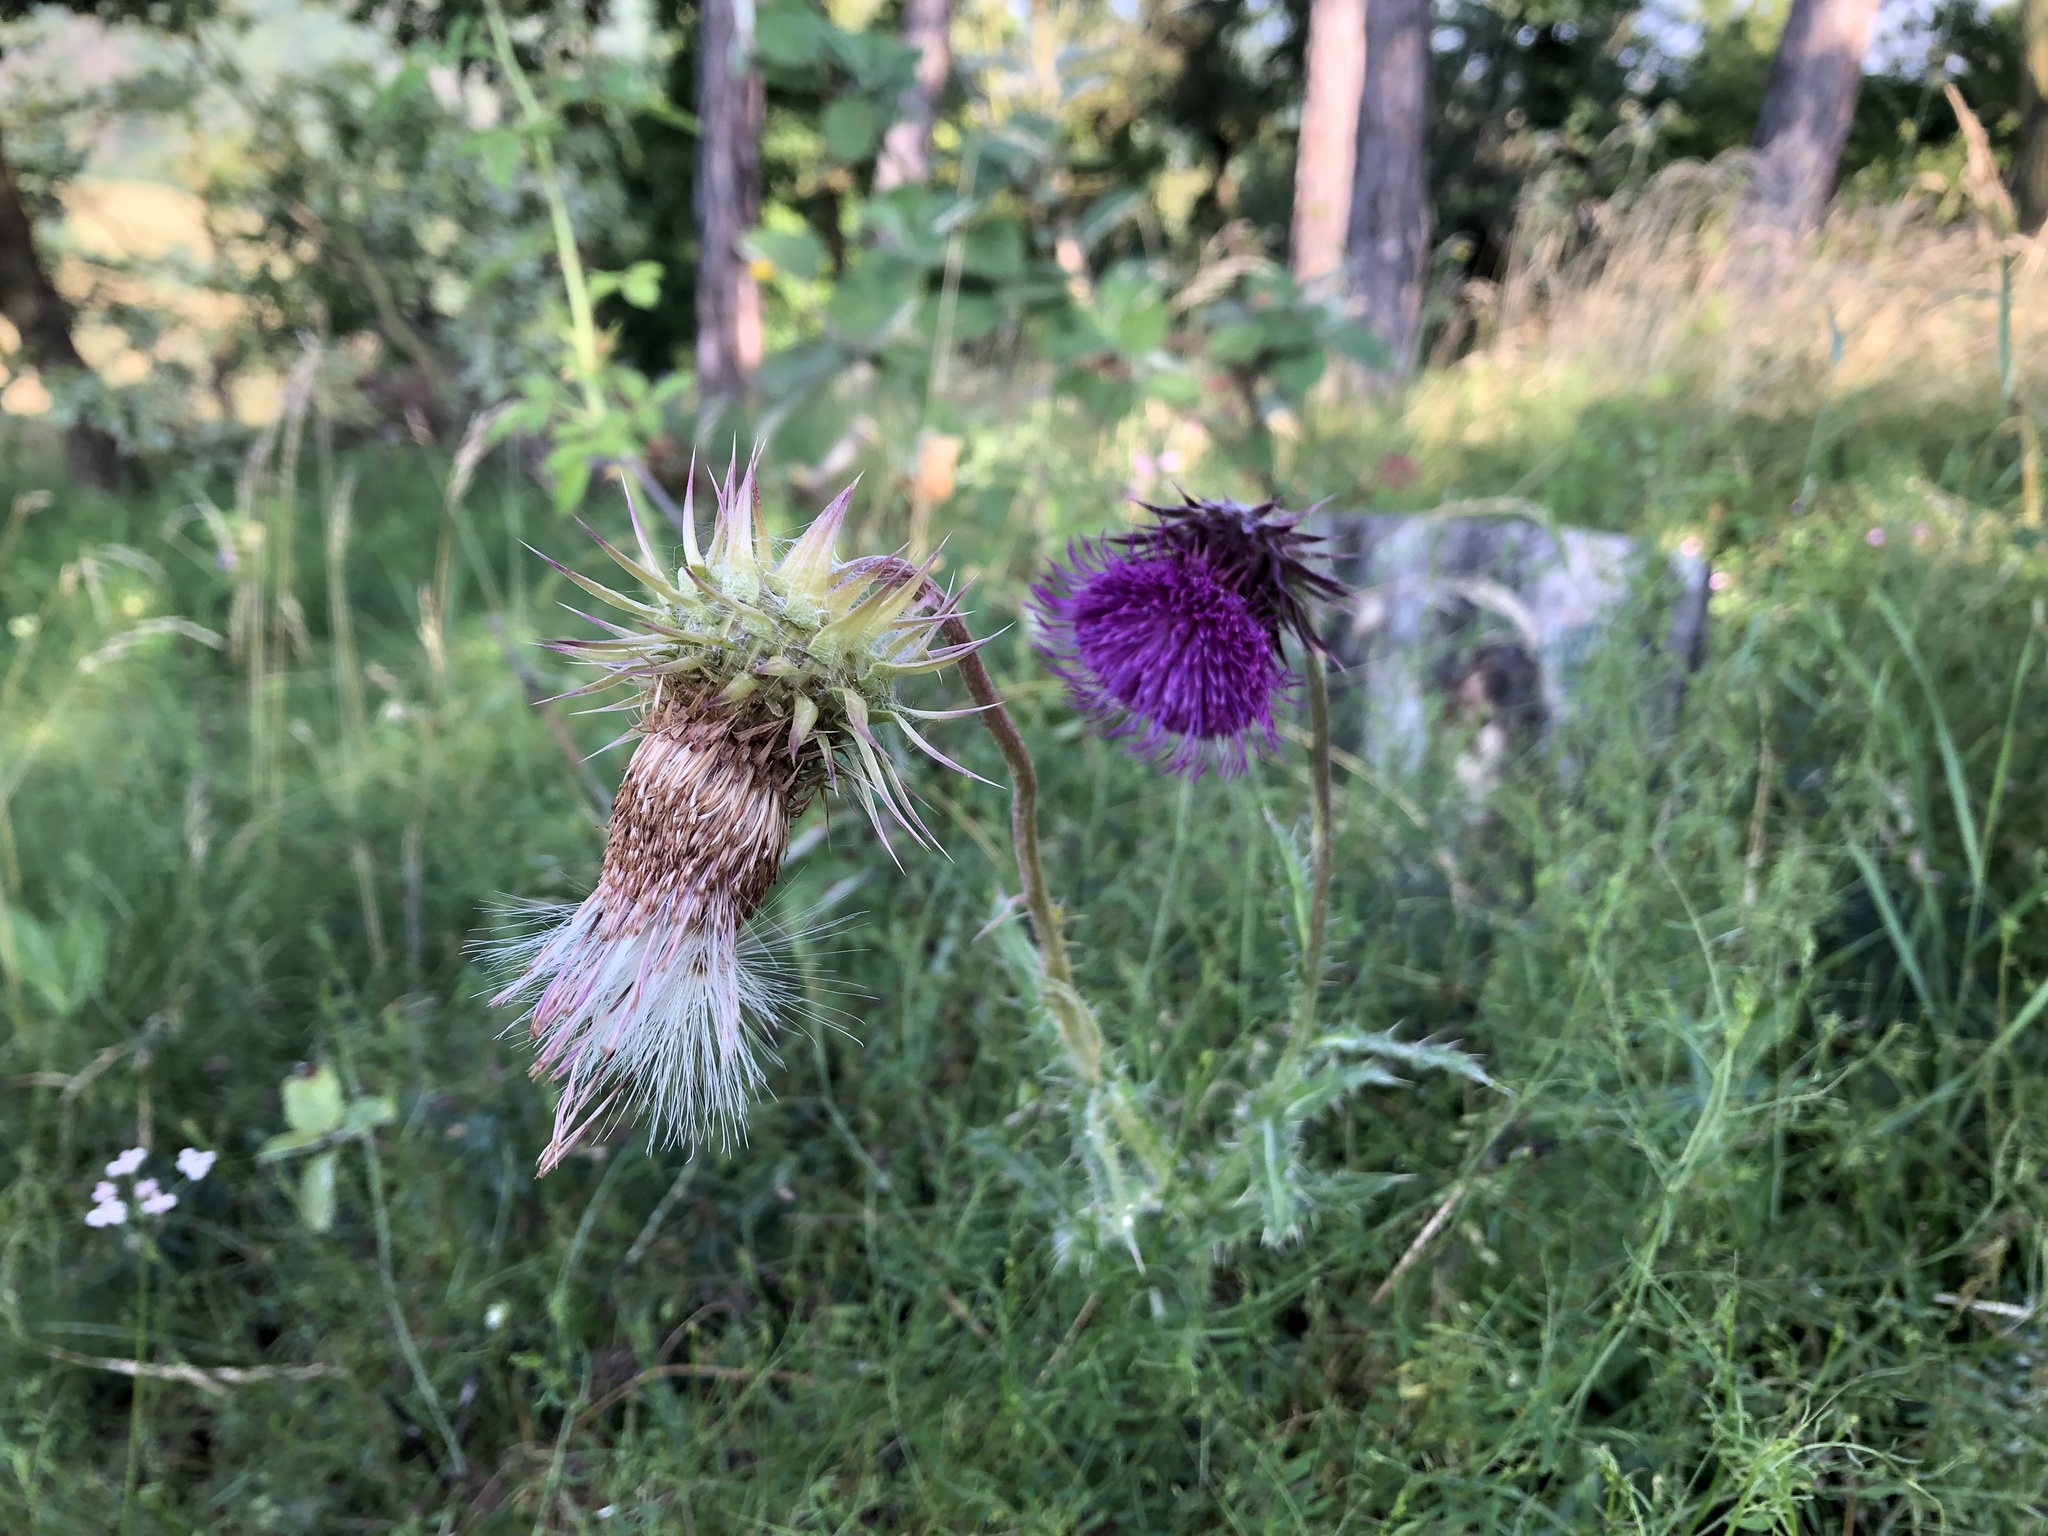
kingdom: Plantae
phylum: Tracheophyta
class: Magnoliopsida
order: Asterales
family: Asteraceae
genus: Carduus
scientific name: Carduus nutans
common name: Musk thistle
